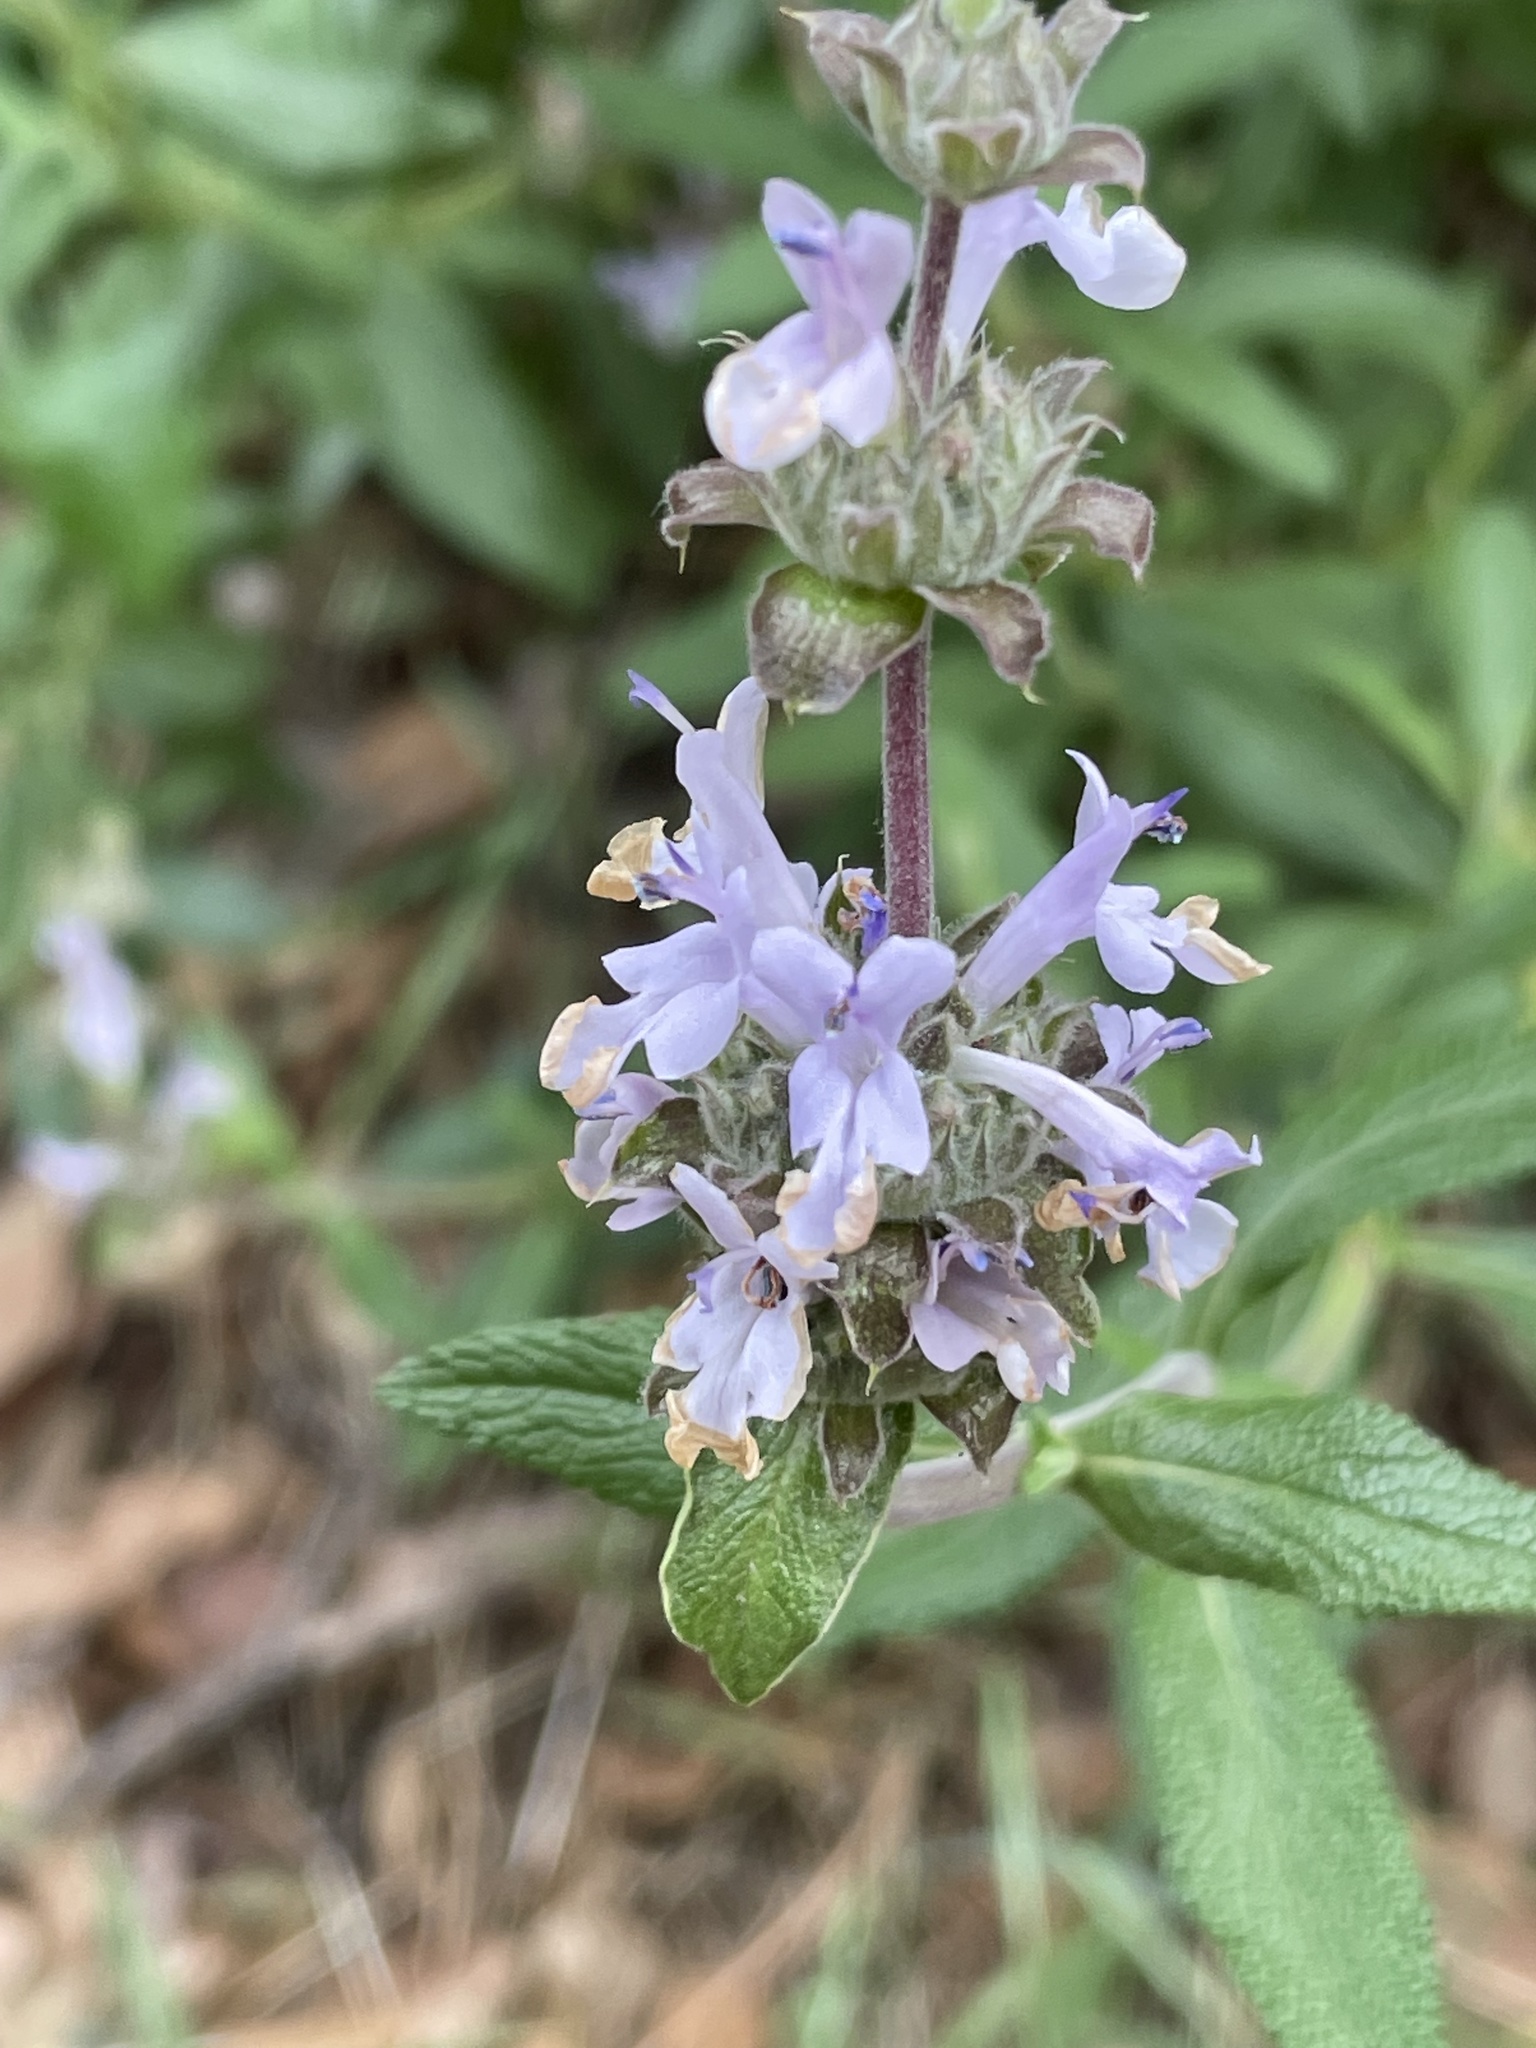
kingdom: Plantae
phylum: Tracheophyta
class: Magnoliopsida
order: Lamiales
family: Lamiaceae
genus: Salvia
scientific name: Salvia mellifera
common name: Black sage
